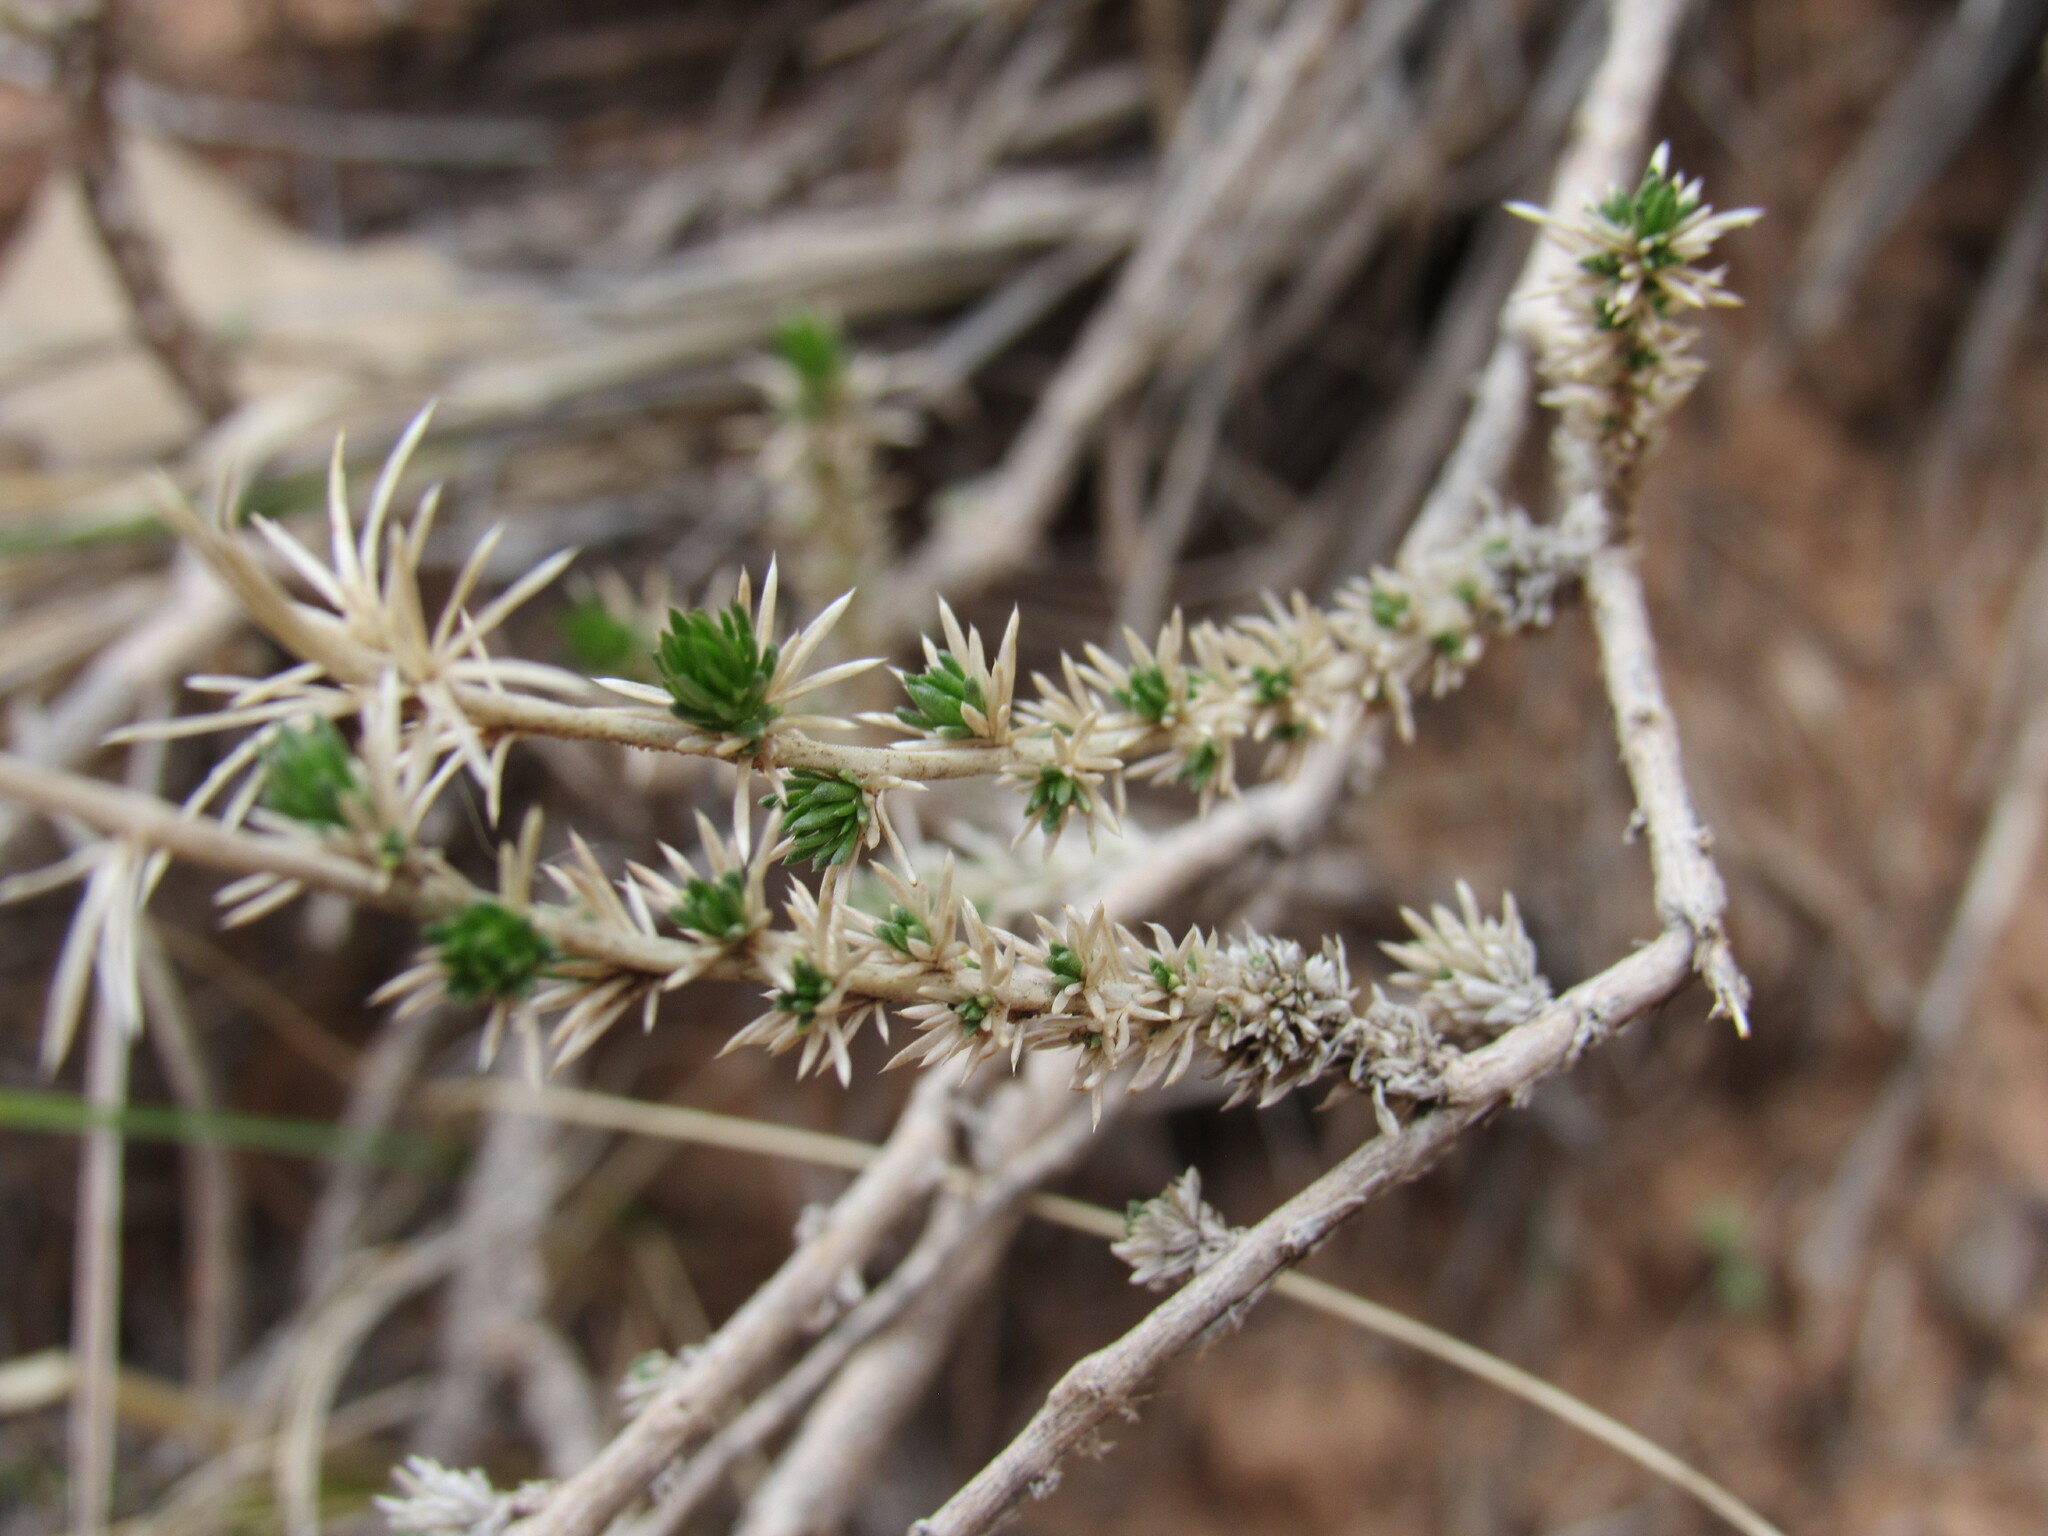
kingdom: Plantae
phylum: Tracheophyta
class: Magnoliopsida
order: Ericales
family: Polemoniaceae
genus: Linanthus
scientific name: Linanthus pungens
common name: Granite prickly phlox
